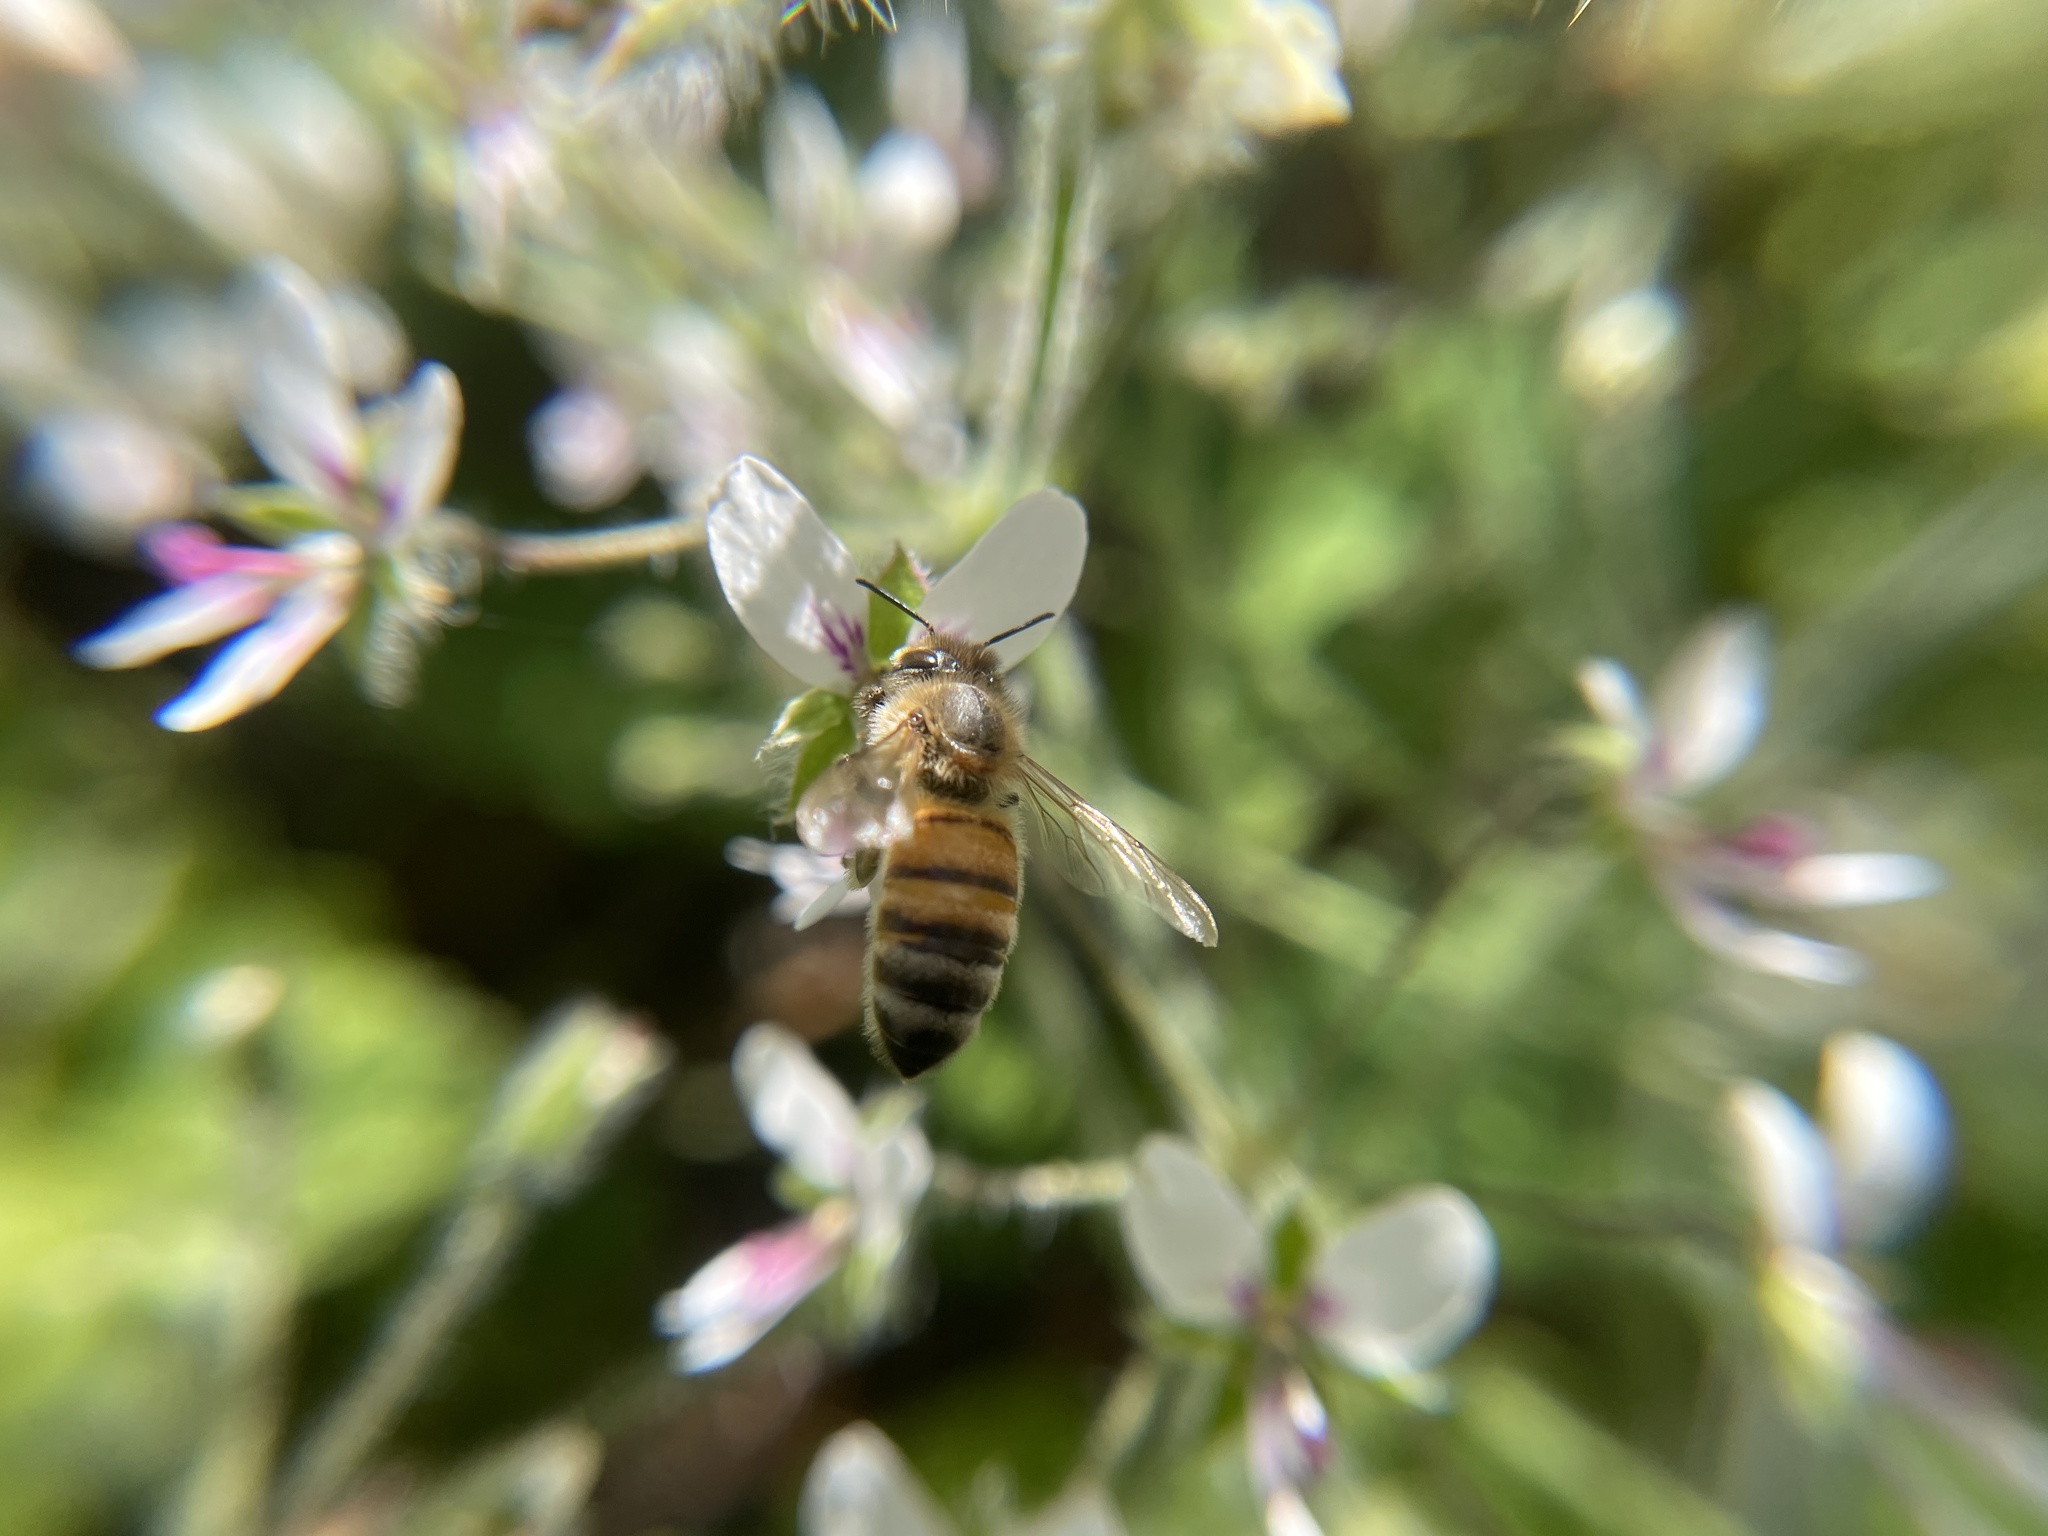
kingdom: Animalia
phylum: Arthropoda
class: Insecta
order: Hymenoptera
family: Apidae
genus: Apis
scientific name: Apis mellifera
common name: Honey bee
